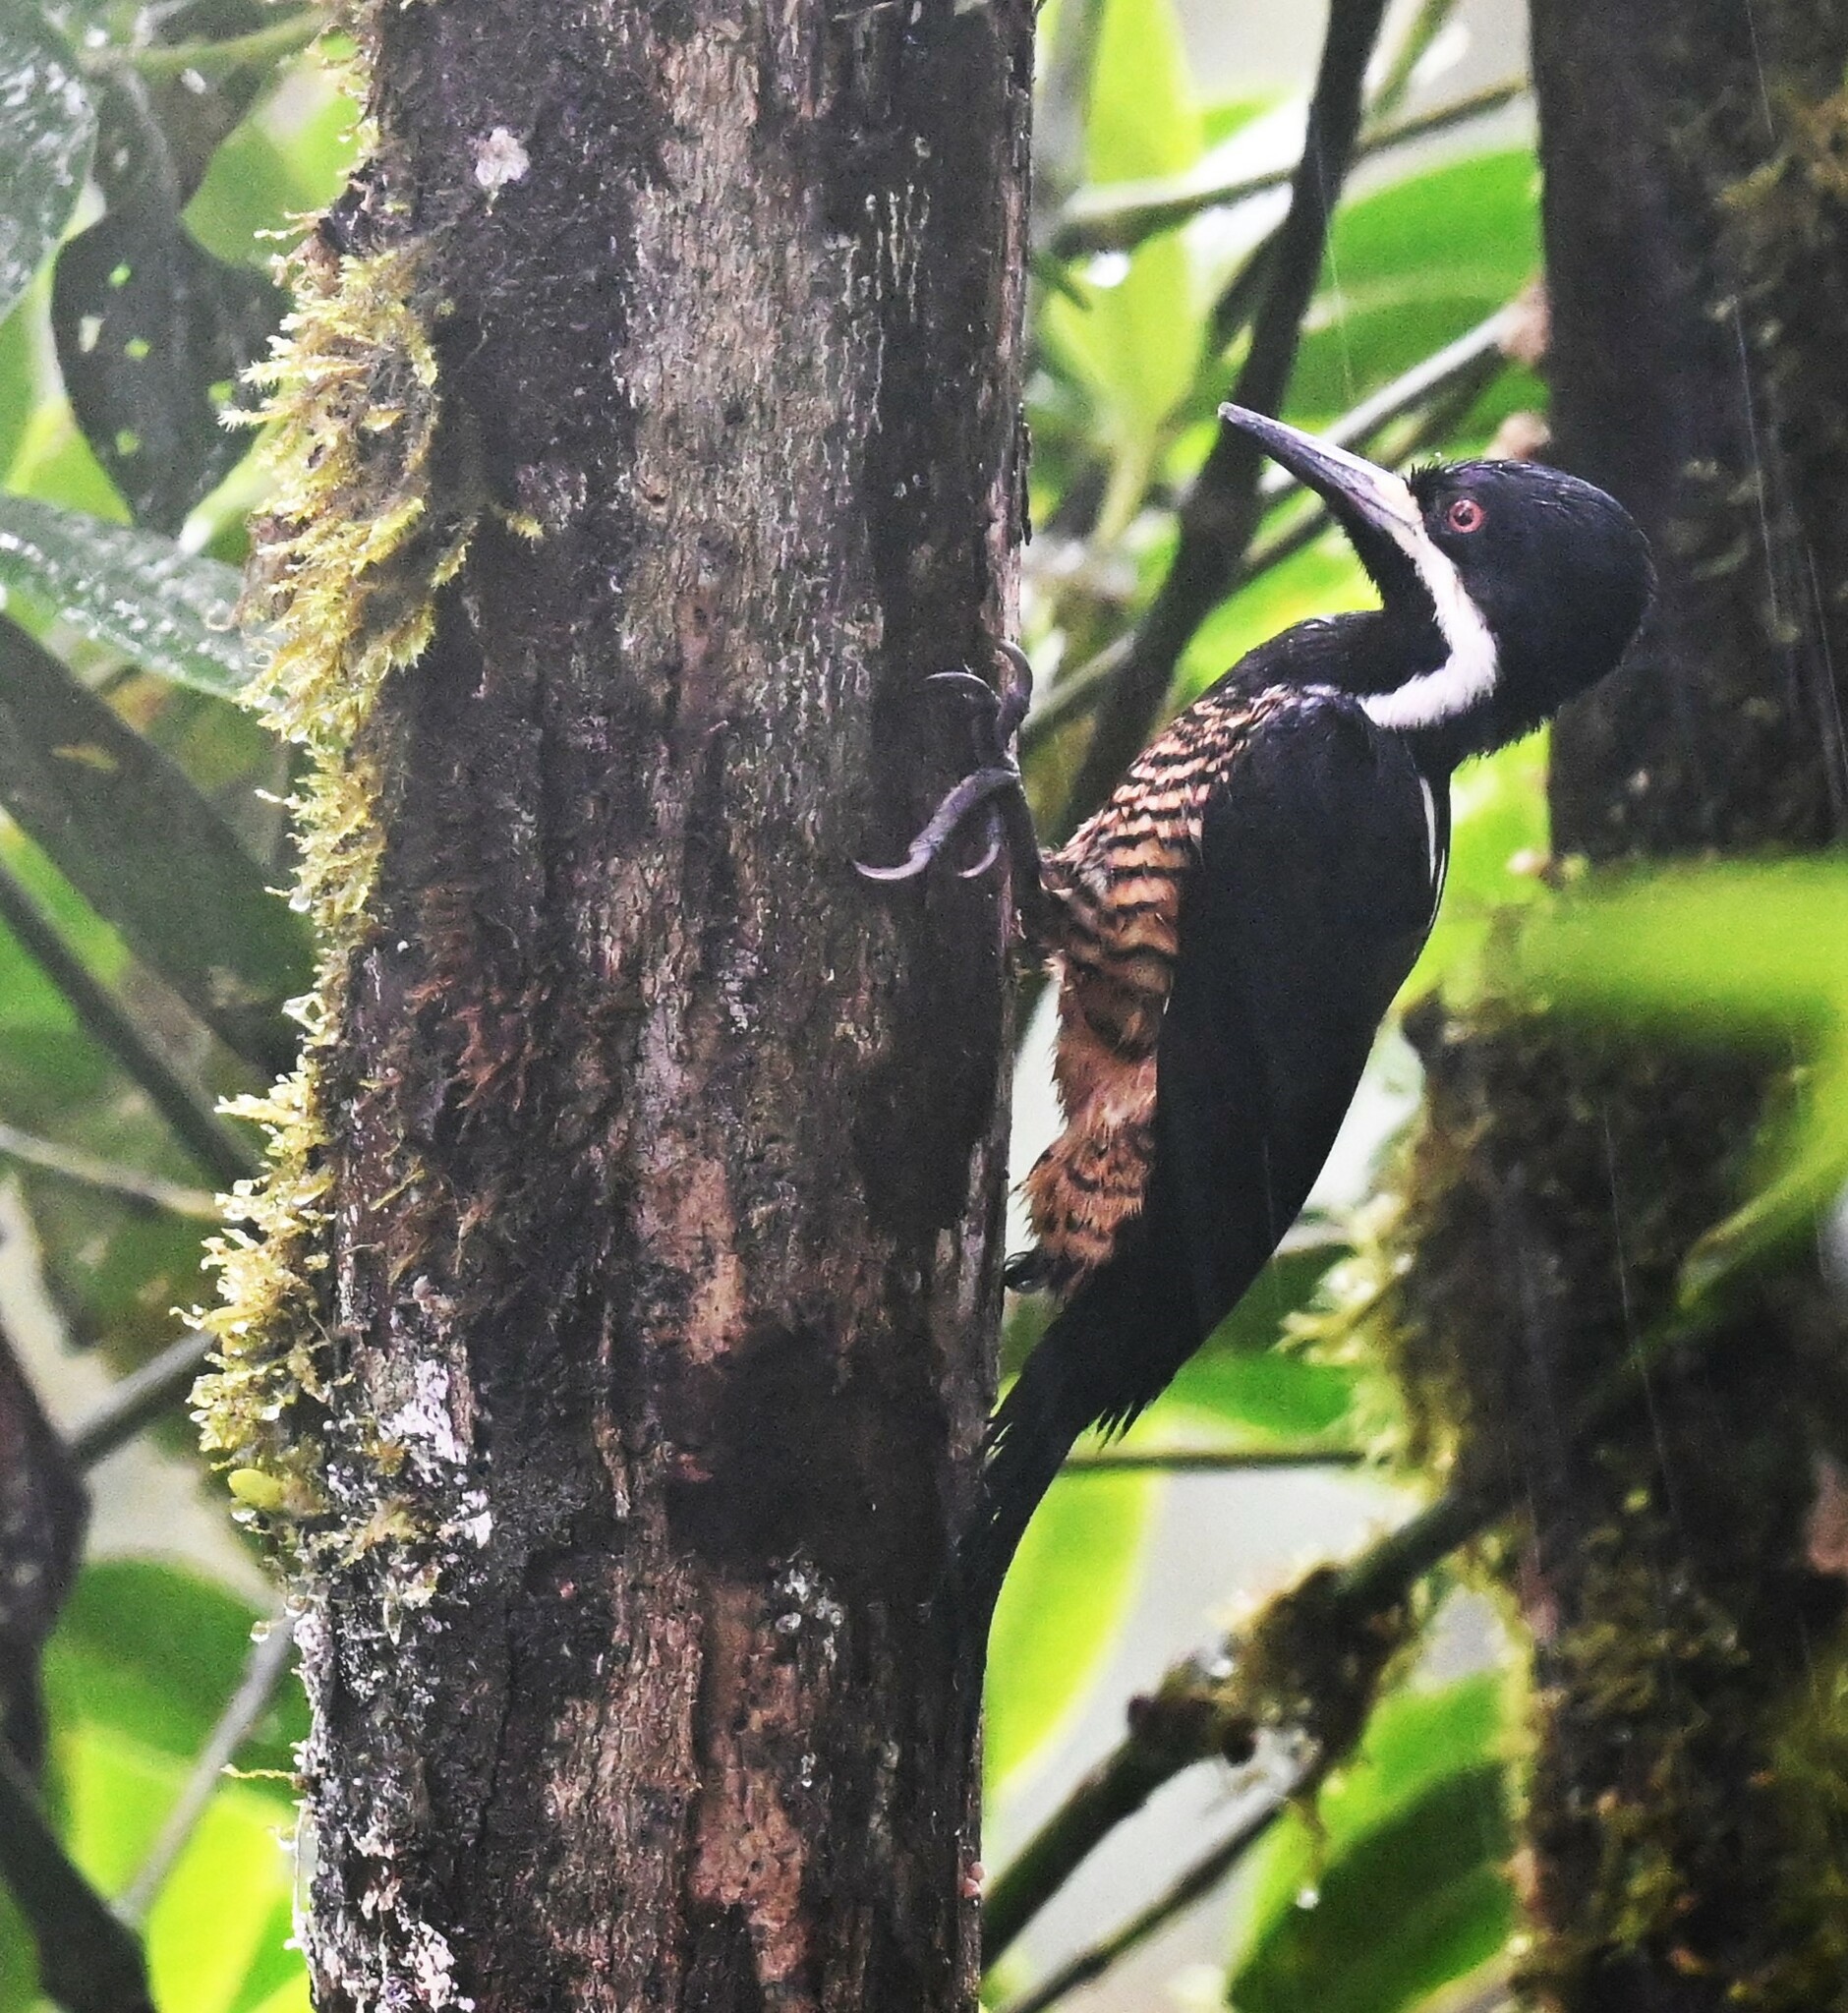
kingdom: Animalia
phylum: Chordata
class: Aves
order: Piciformes
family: Picidae
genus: Campephilus
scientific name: Campephilus pollens
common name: Powerful woodpecker
